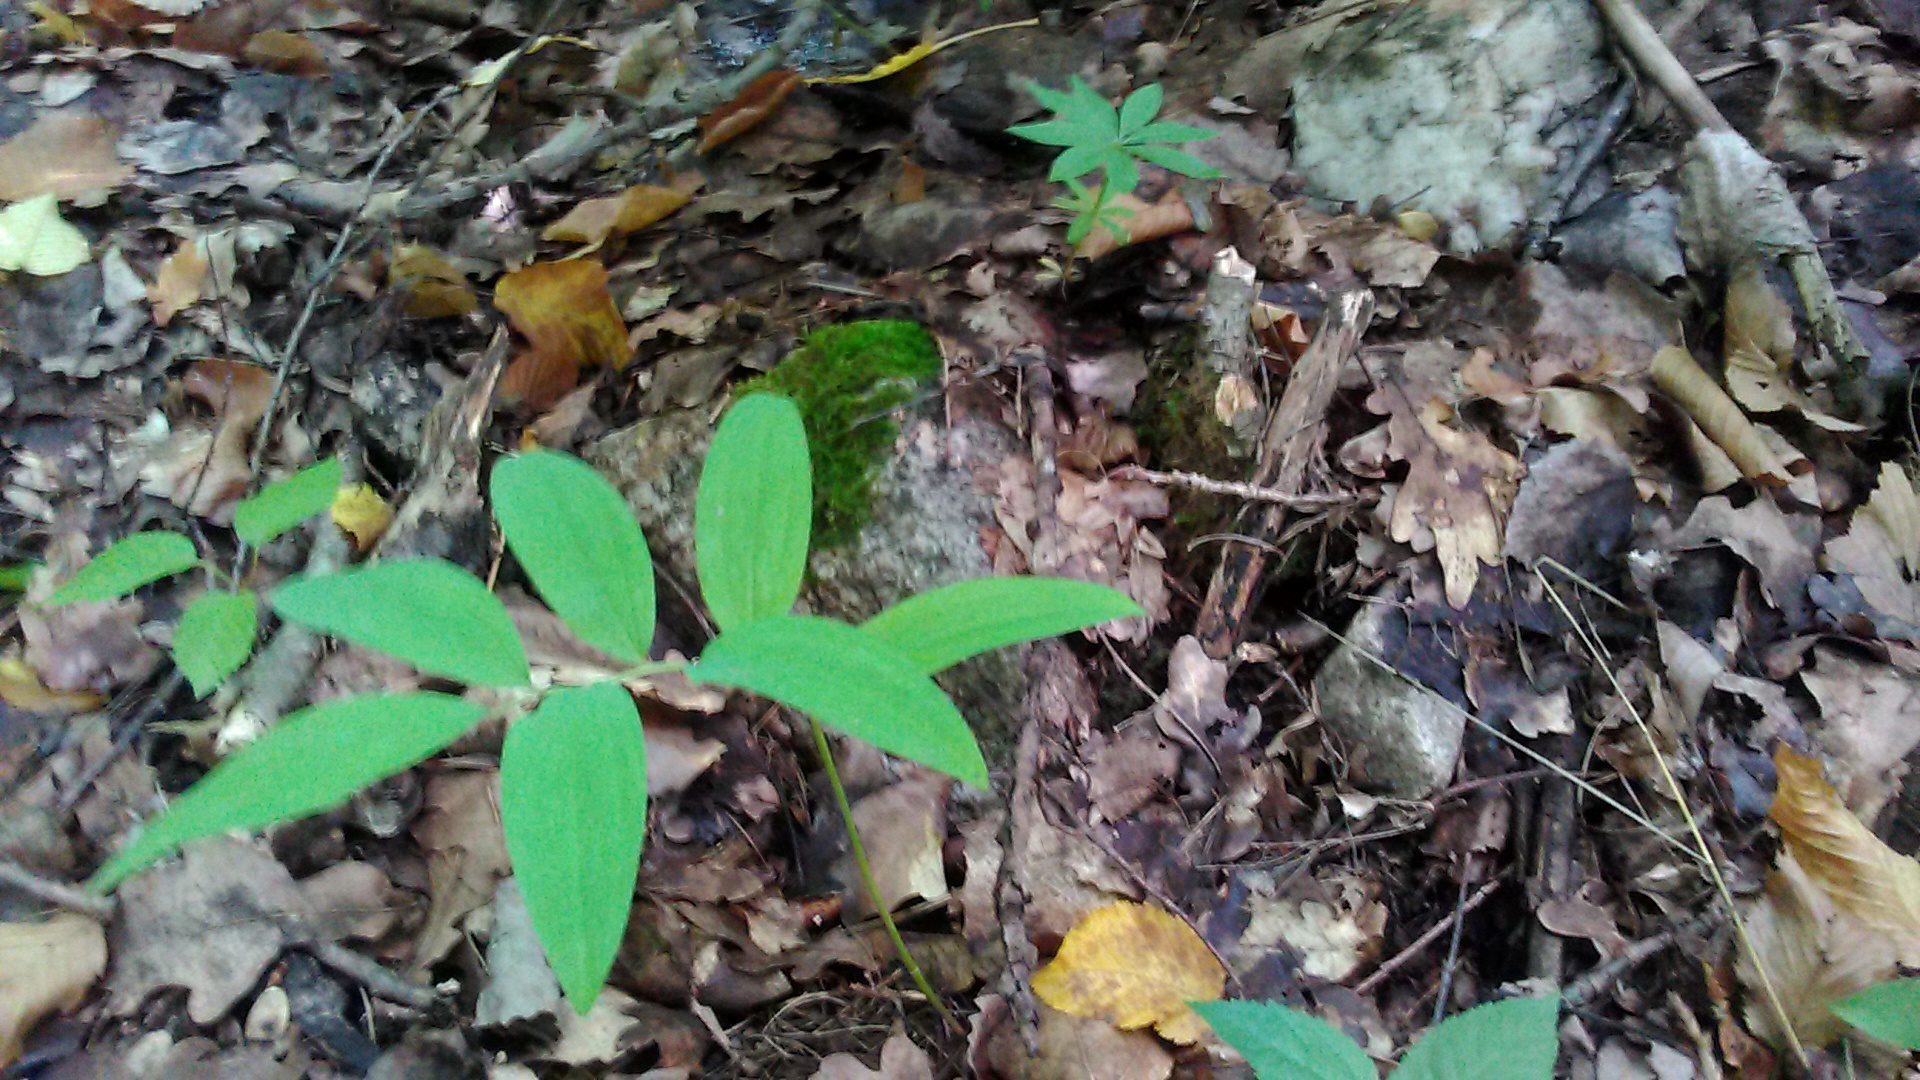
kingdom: Plantae
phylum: Tracheophyta
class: Liliopsida
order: Asparagales
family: Asparagaceae
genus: Polygonatum
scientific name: Polygonatum orientale
